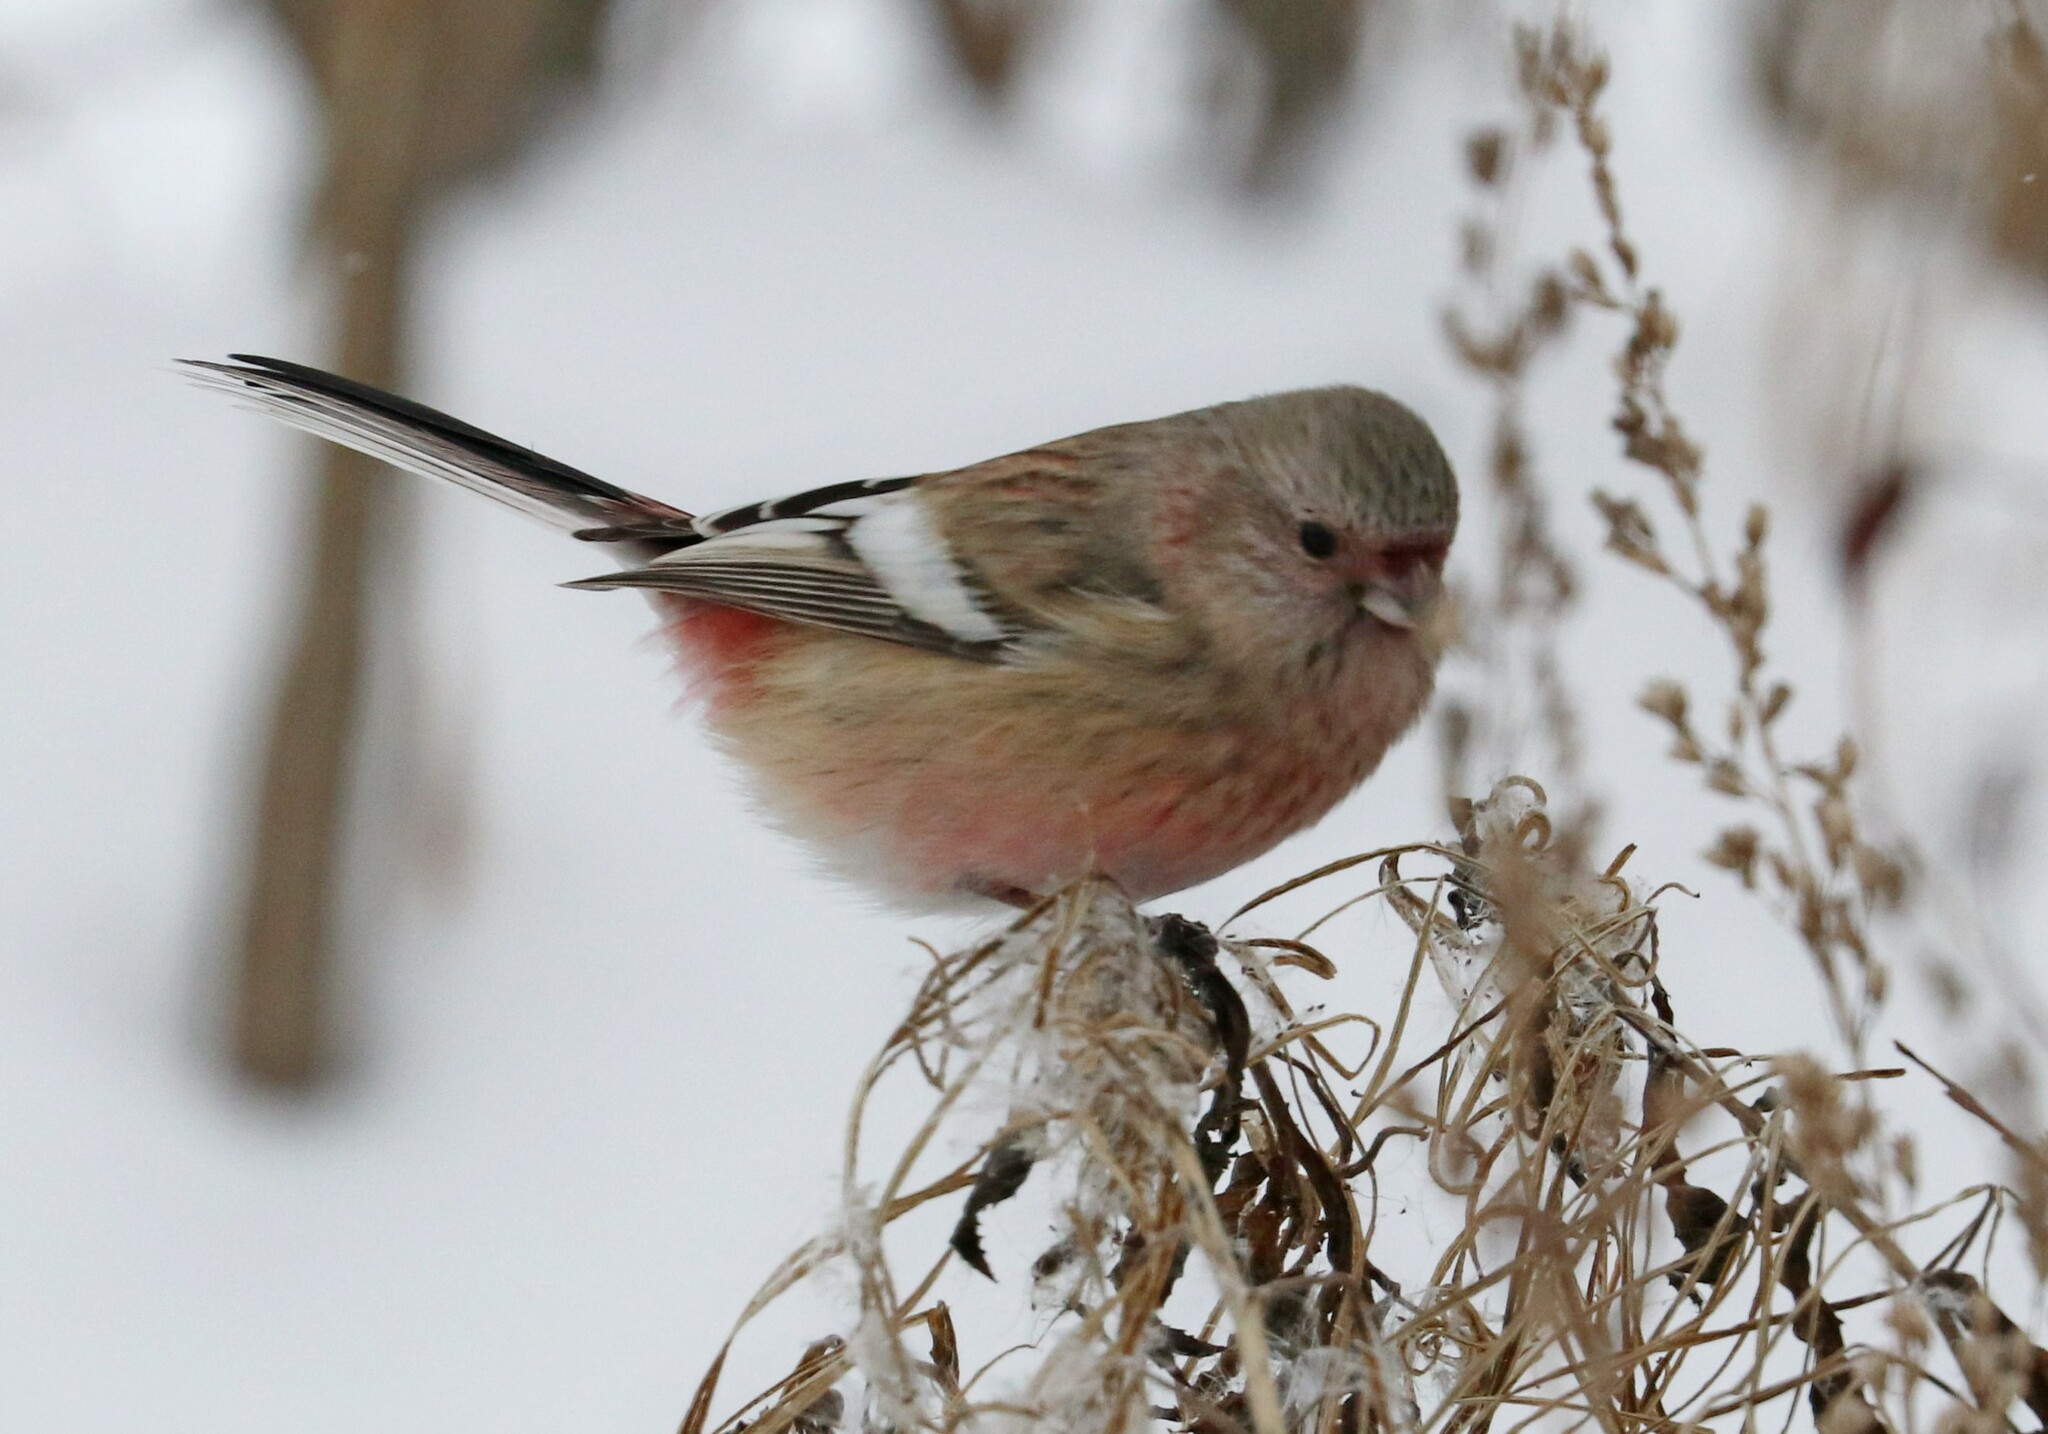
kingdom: Animalia
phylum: Chordata
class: Aves
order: Passeriformes
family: Fringillidae
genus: Carpodacus
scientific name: Carpodacus sibiricus
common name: Long-tailed rosefinch
